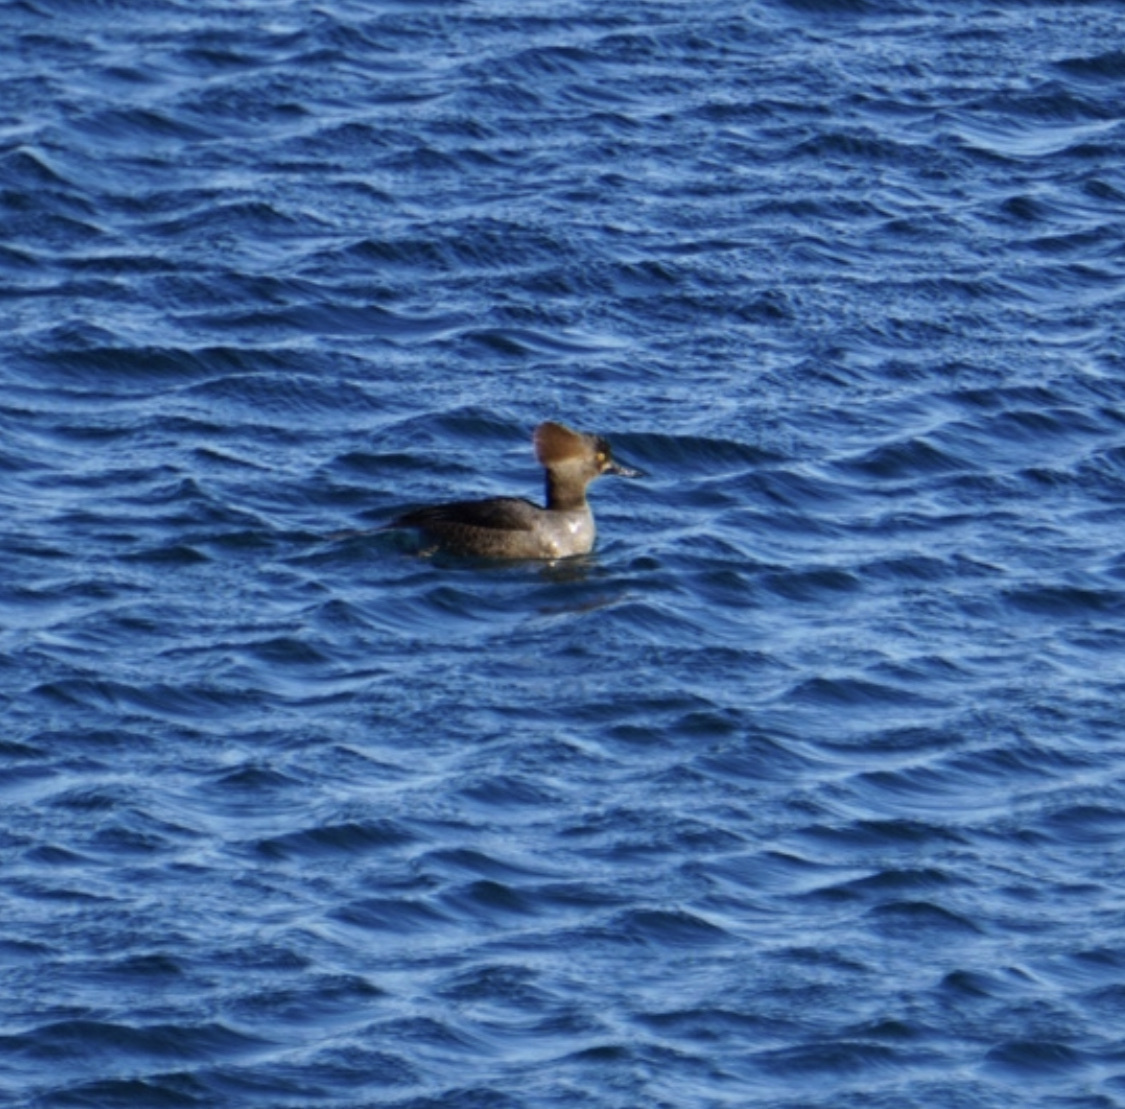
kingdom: Animalia
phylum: Chordata
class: Aves
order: Anseriformes
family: Anatidae
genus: Lophodytes
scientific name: Lophodytes cucullatus
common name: Hooded merganser
